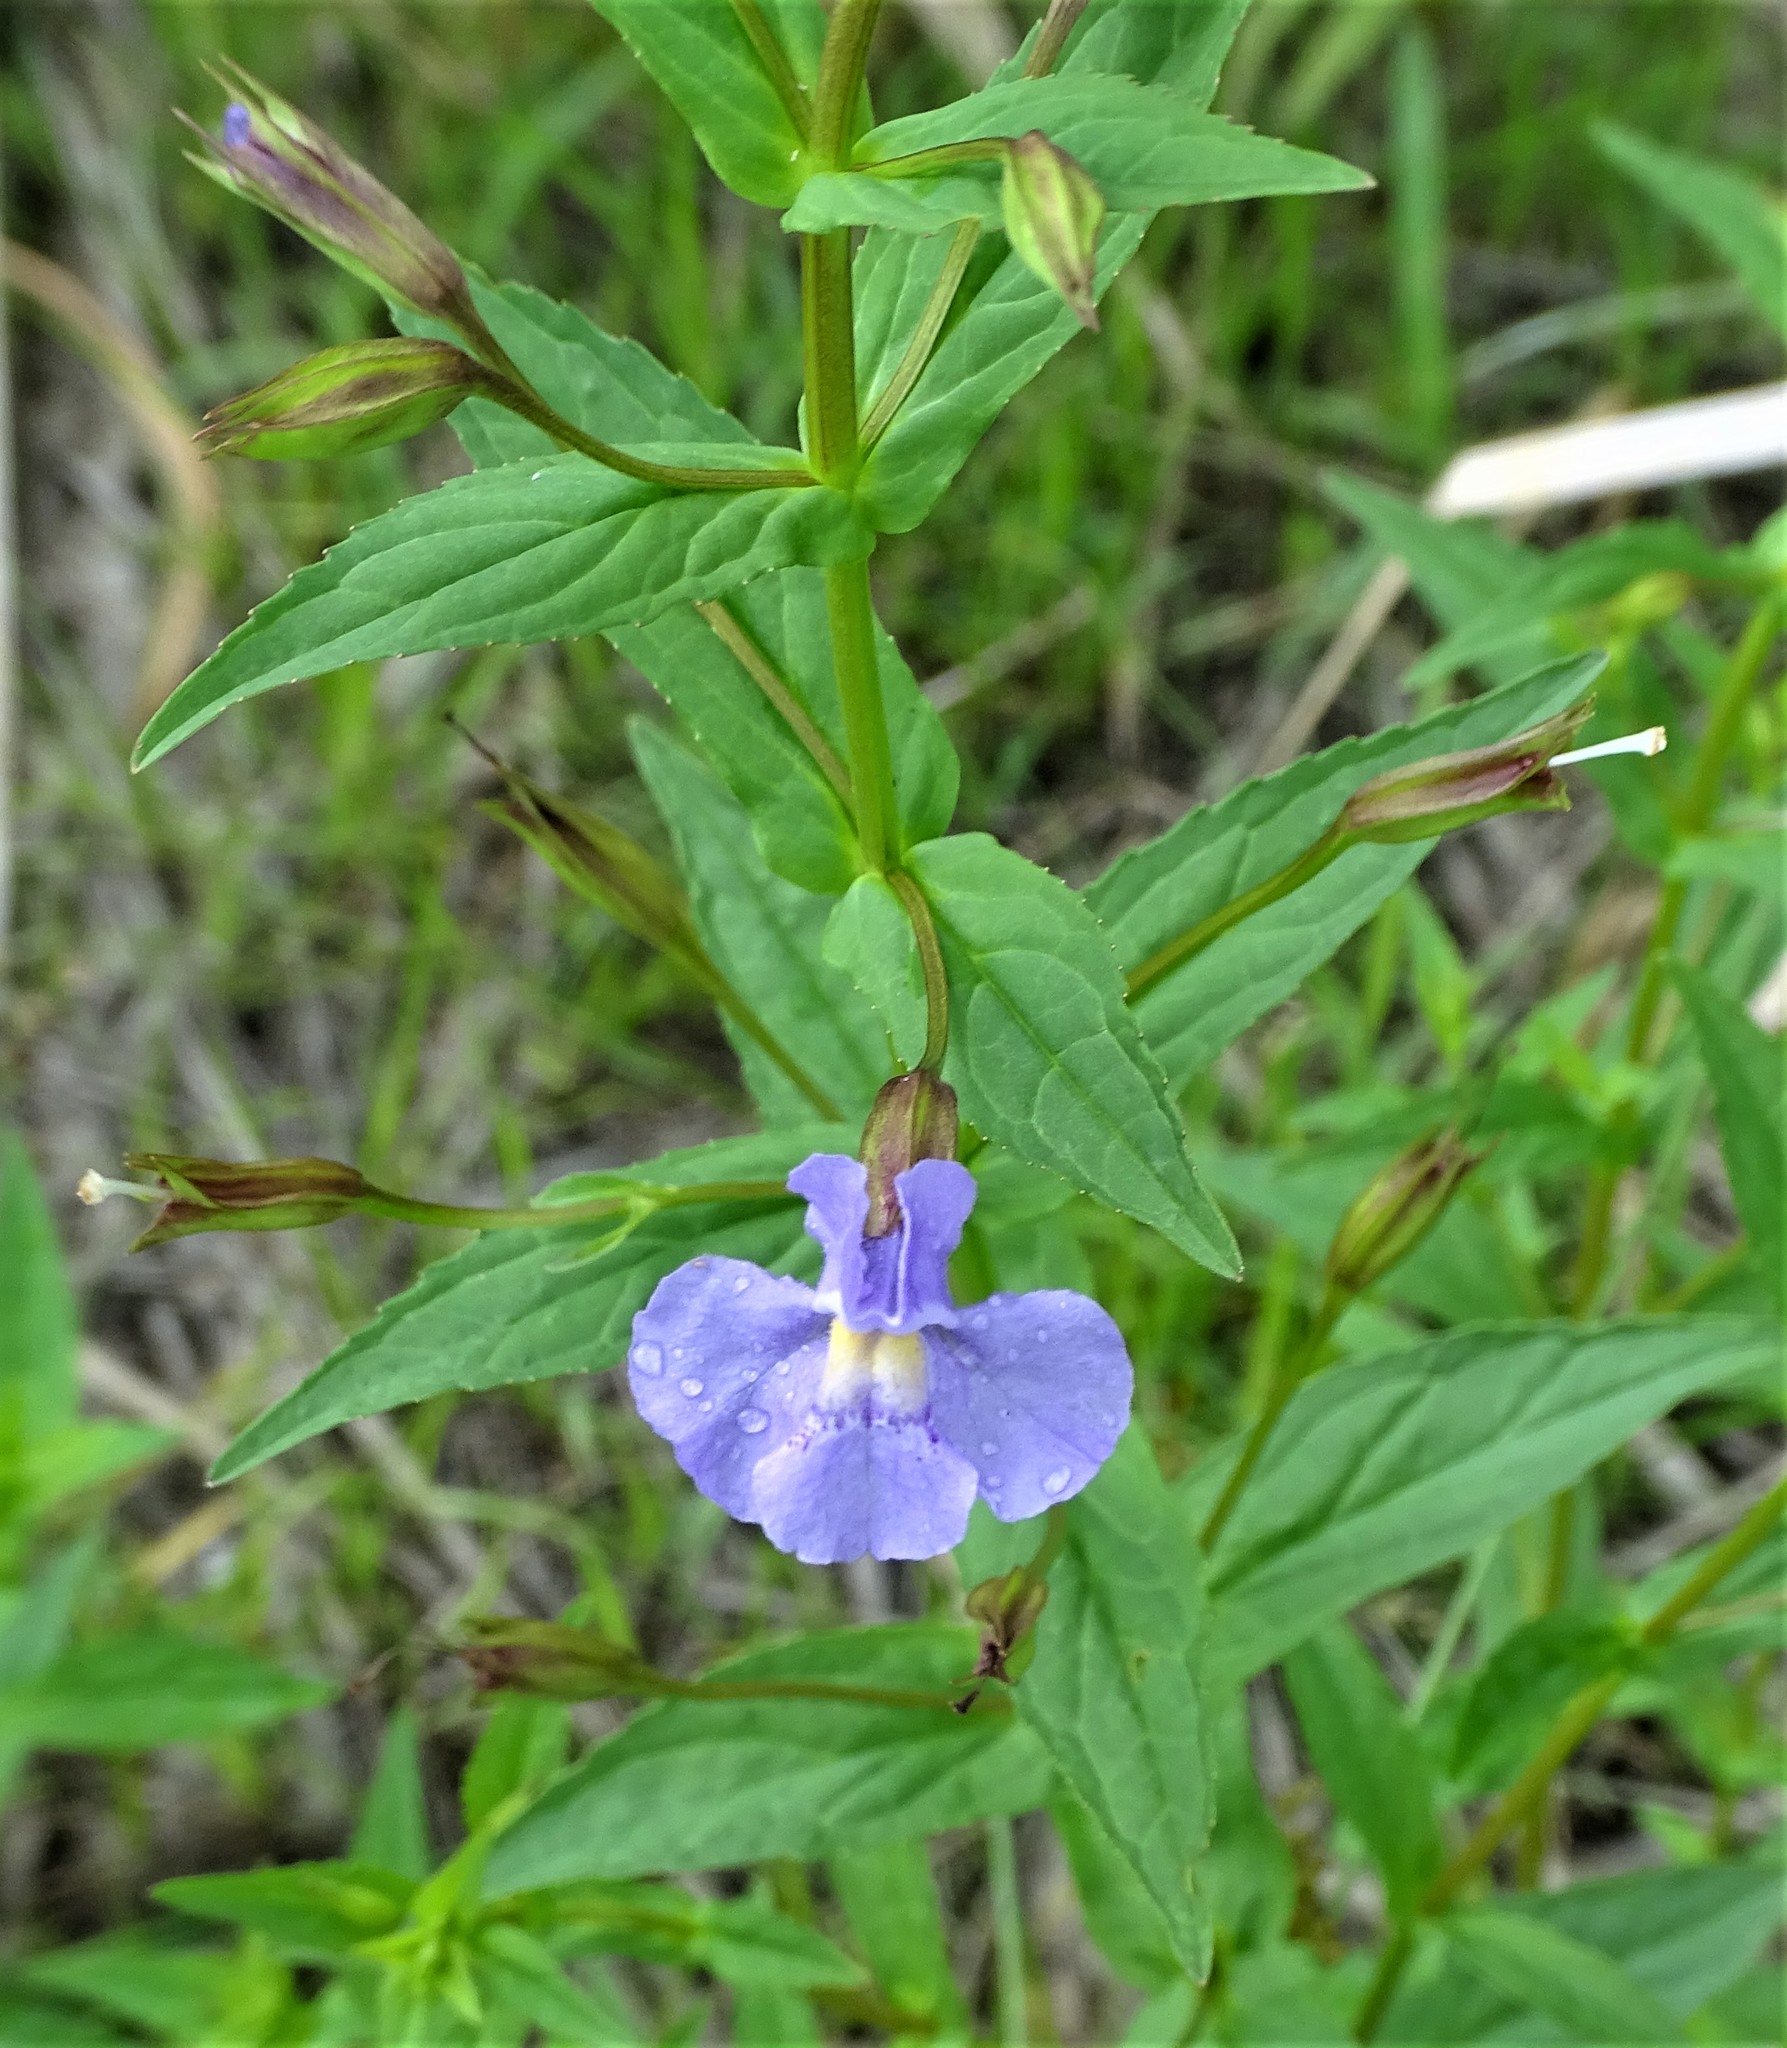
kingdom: Plantae
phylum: Tracheophyta
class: Magnoliopsida
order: Lamiales
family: Phrymaceae
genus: Mimulus
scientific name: Mimulus ringens
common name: Allegheny monkeyflower
